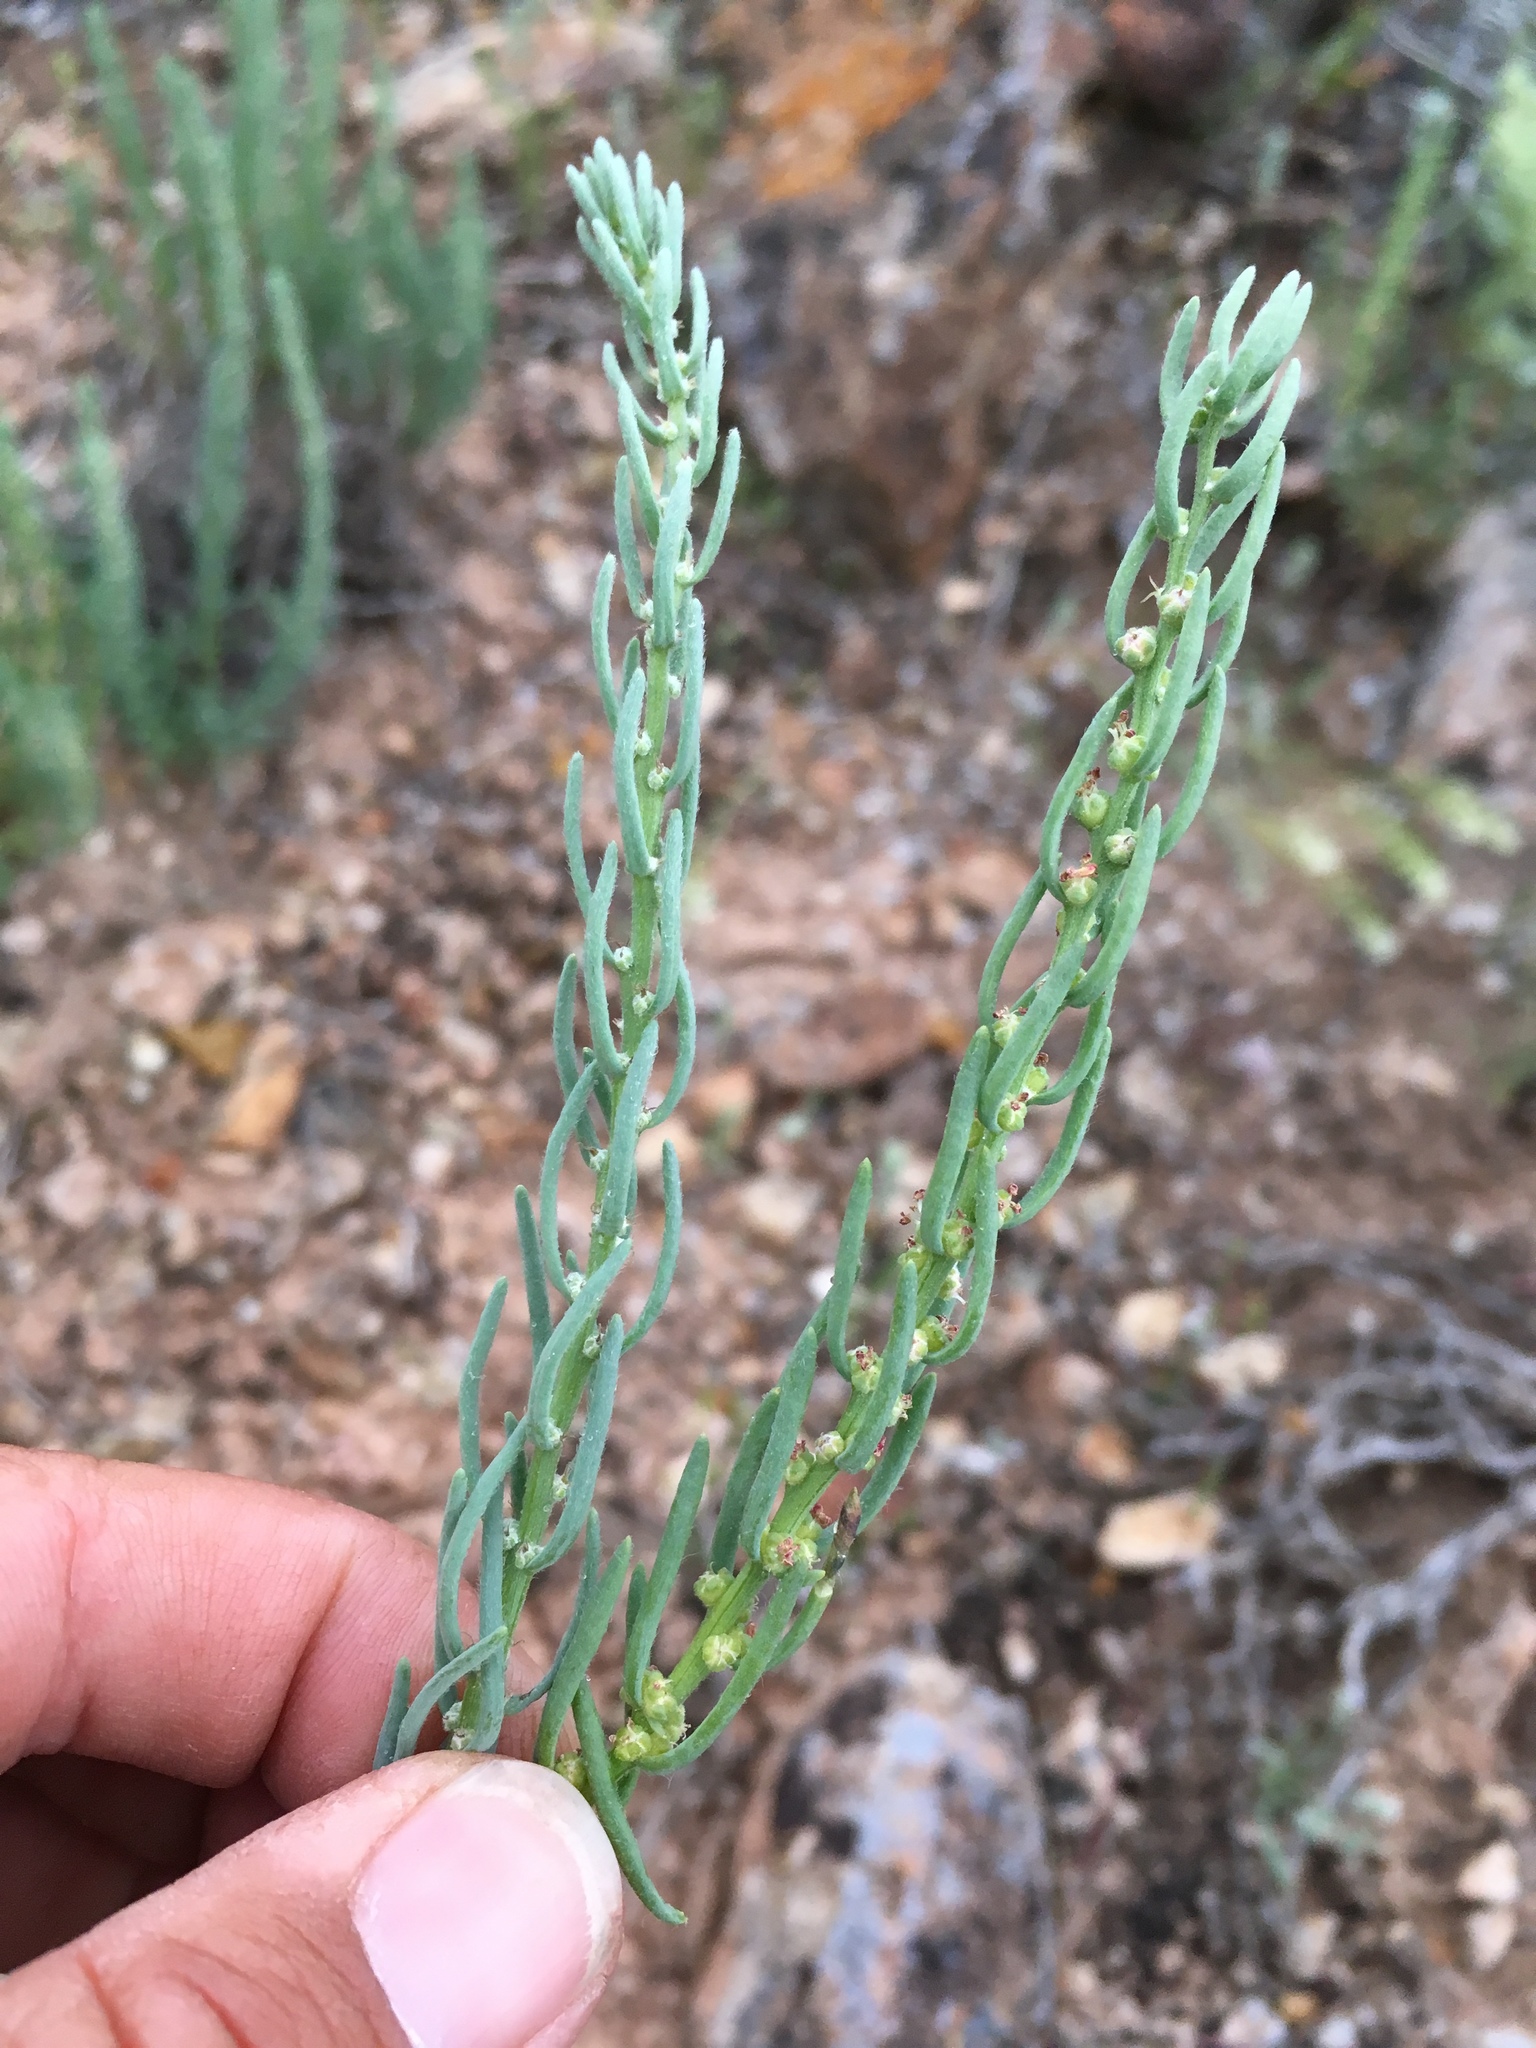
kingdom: Plantae
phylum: Tracheophyta
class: Magnoliopsida
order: Caryophyllales
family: Amaranthaceae
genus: Neokochia
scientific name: Neokochia americana
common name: Perennial summer-cypress
